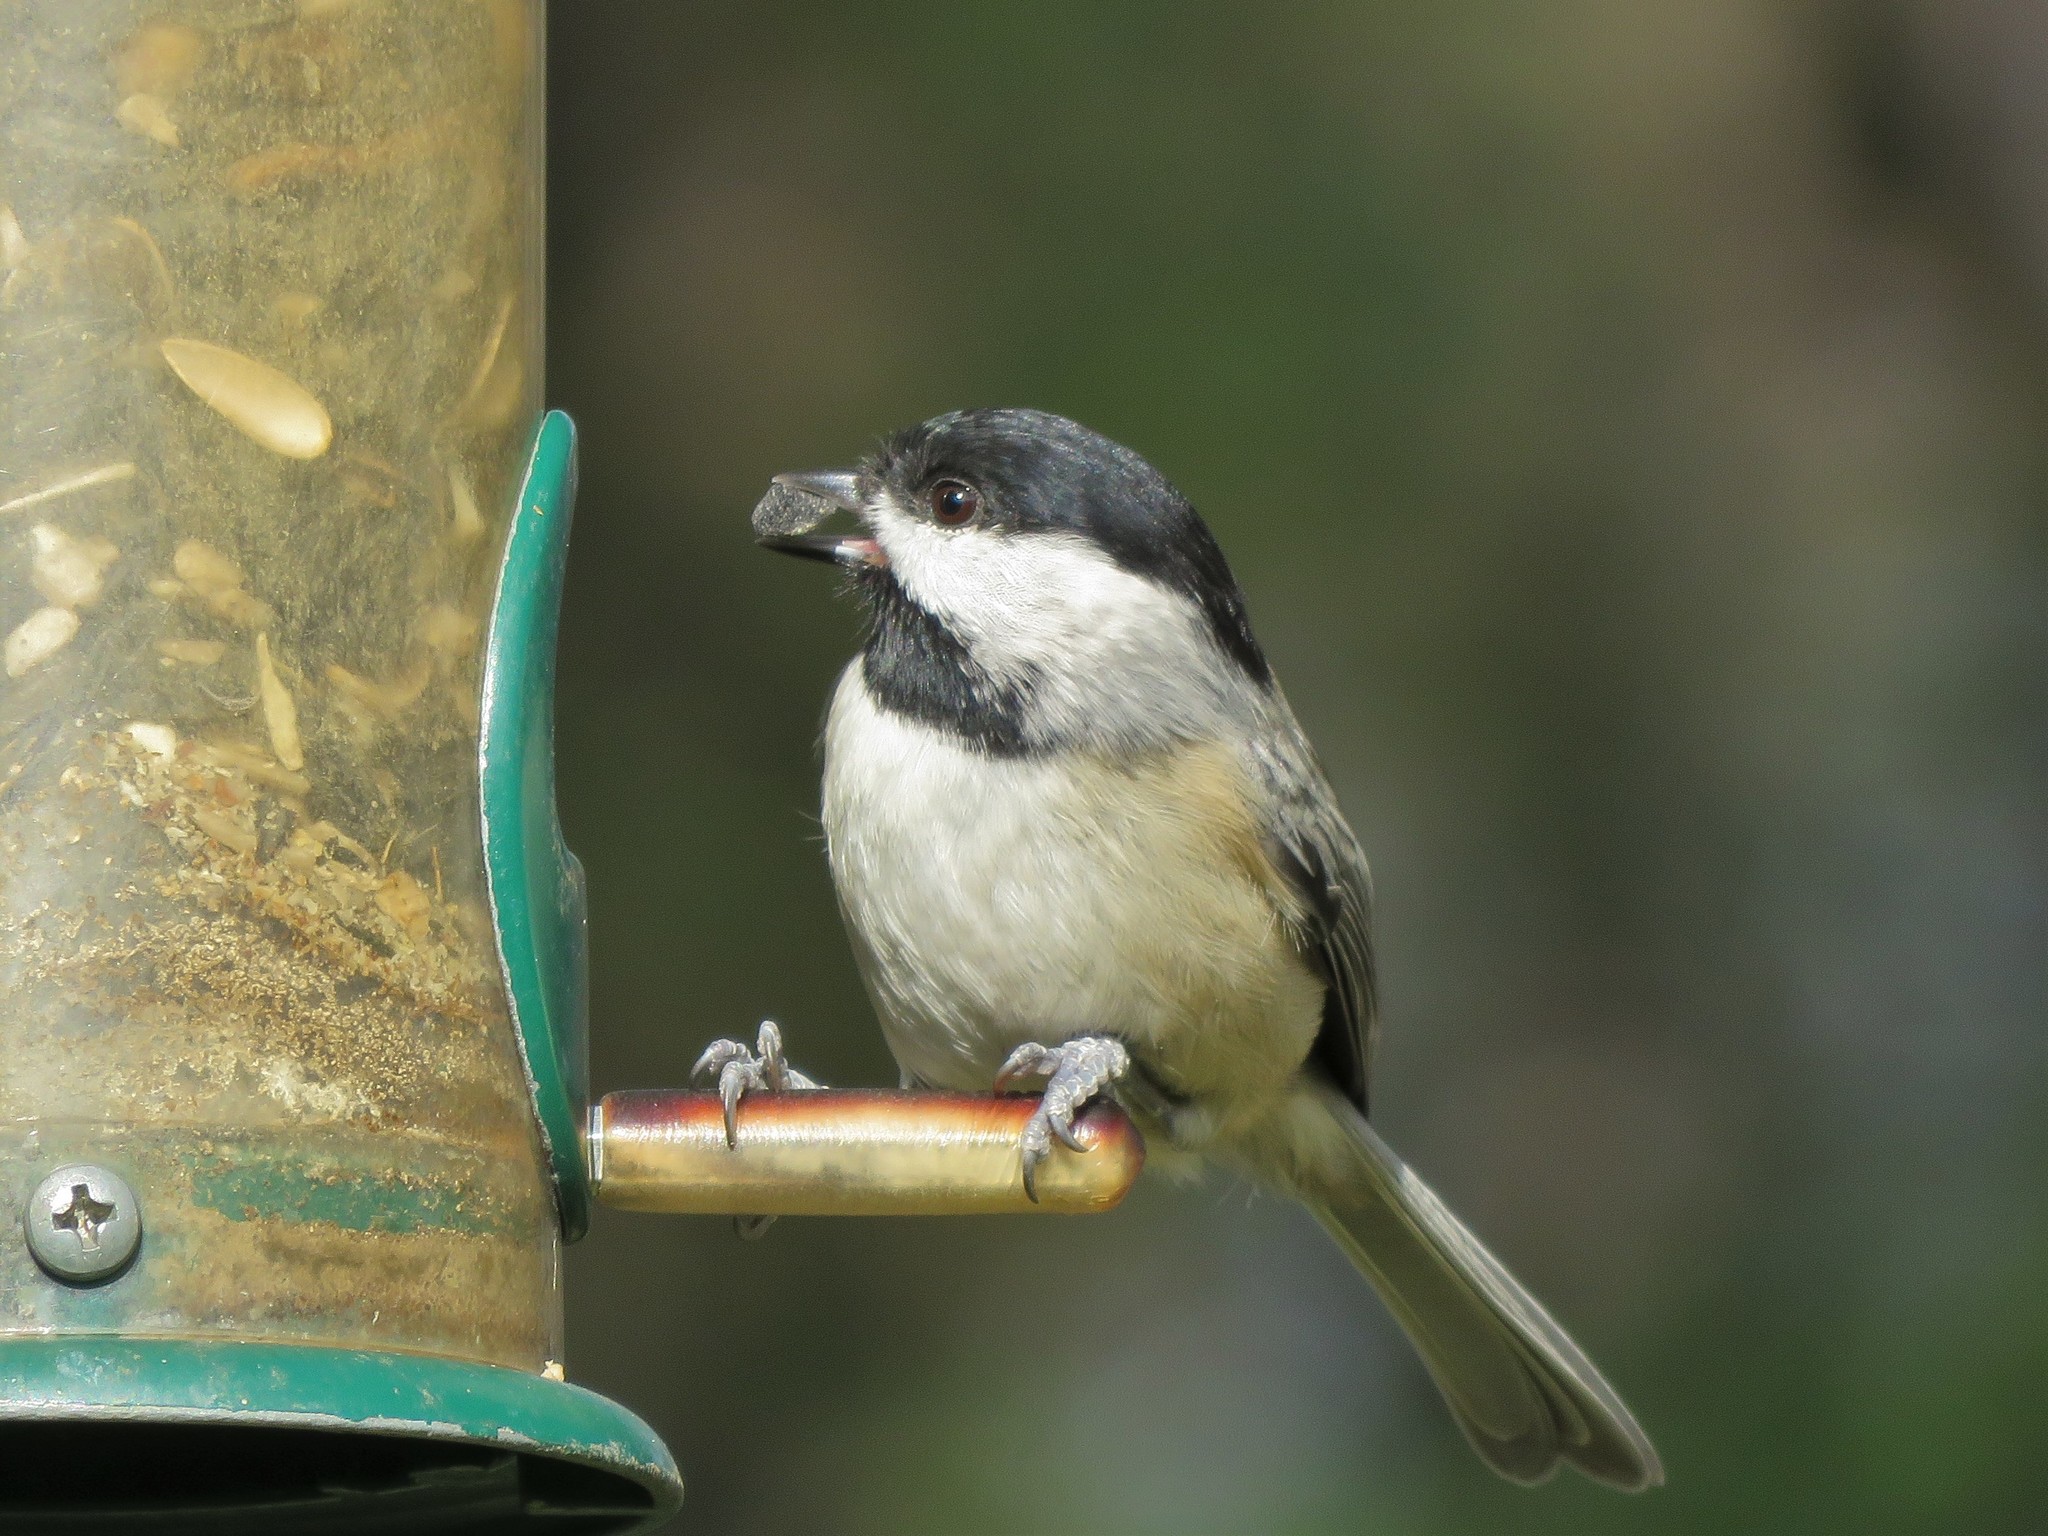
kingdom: Animalia
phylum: Chordata
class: Aves
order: Passeriformes
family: Paridae
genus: Poecile
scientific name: Poecile carolinensis
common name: Carolina chickadee
